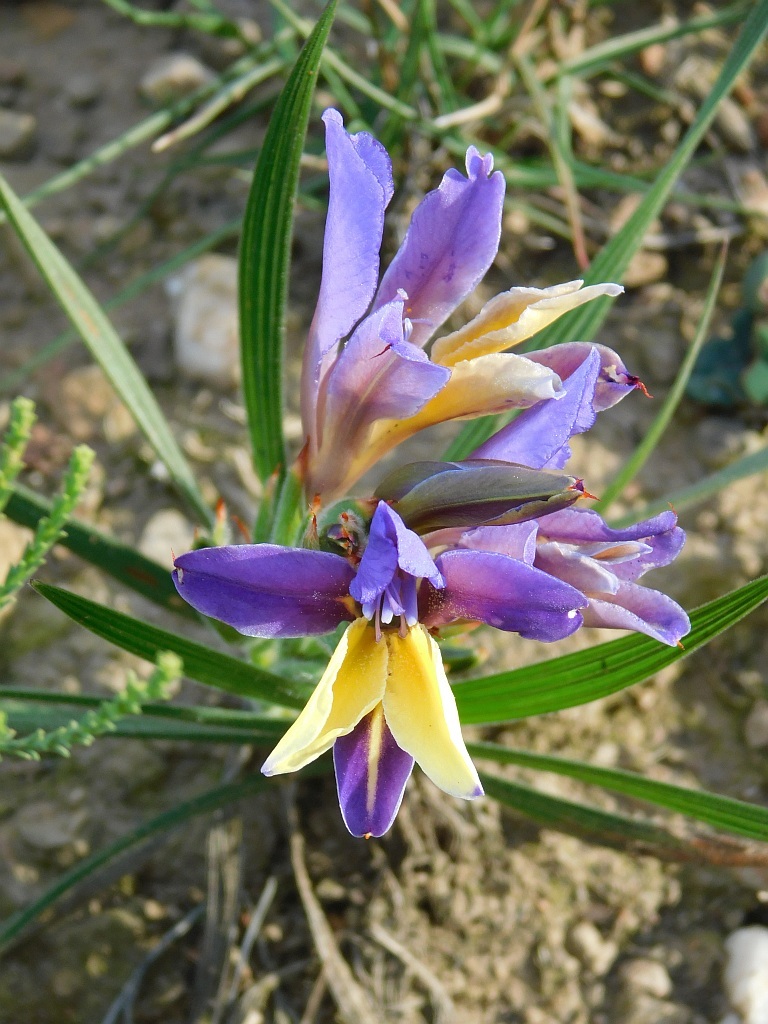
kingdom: Plantae
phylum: Tracheophyta
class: Liliopsida
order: Asparagales
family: Iridaceae
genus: Babiana
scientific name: Babiana patula
